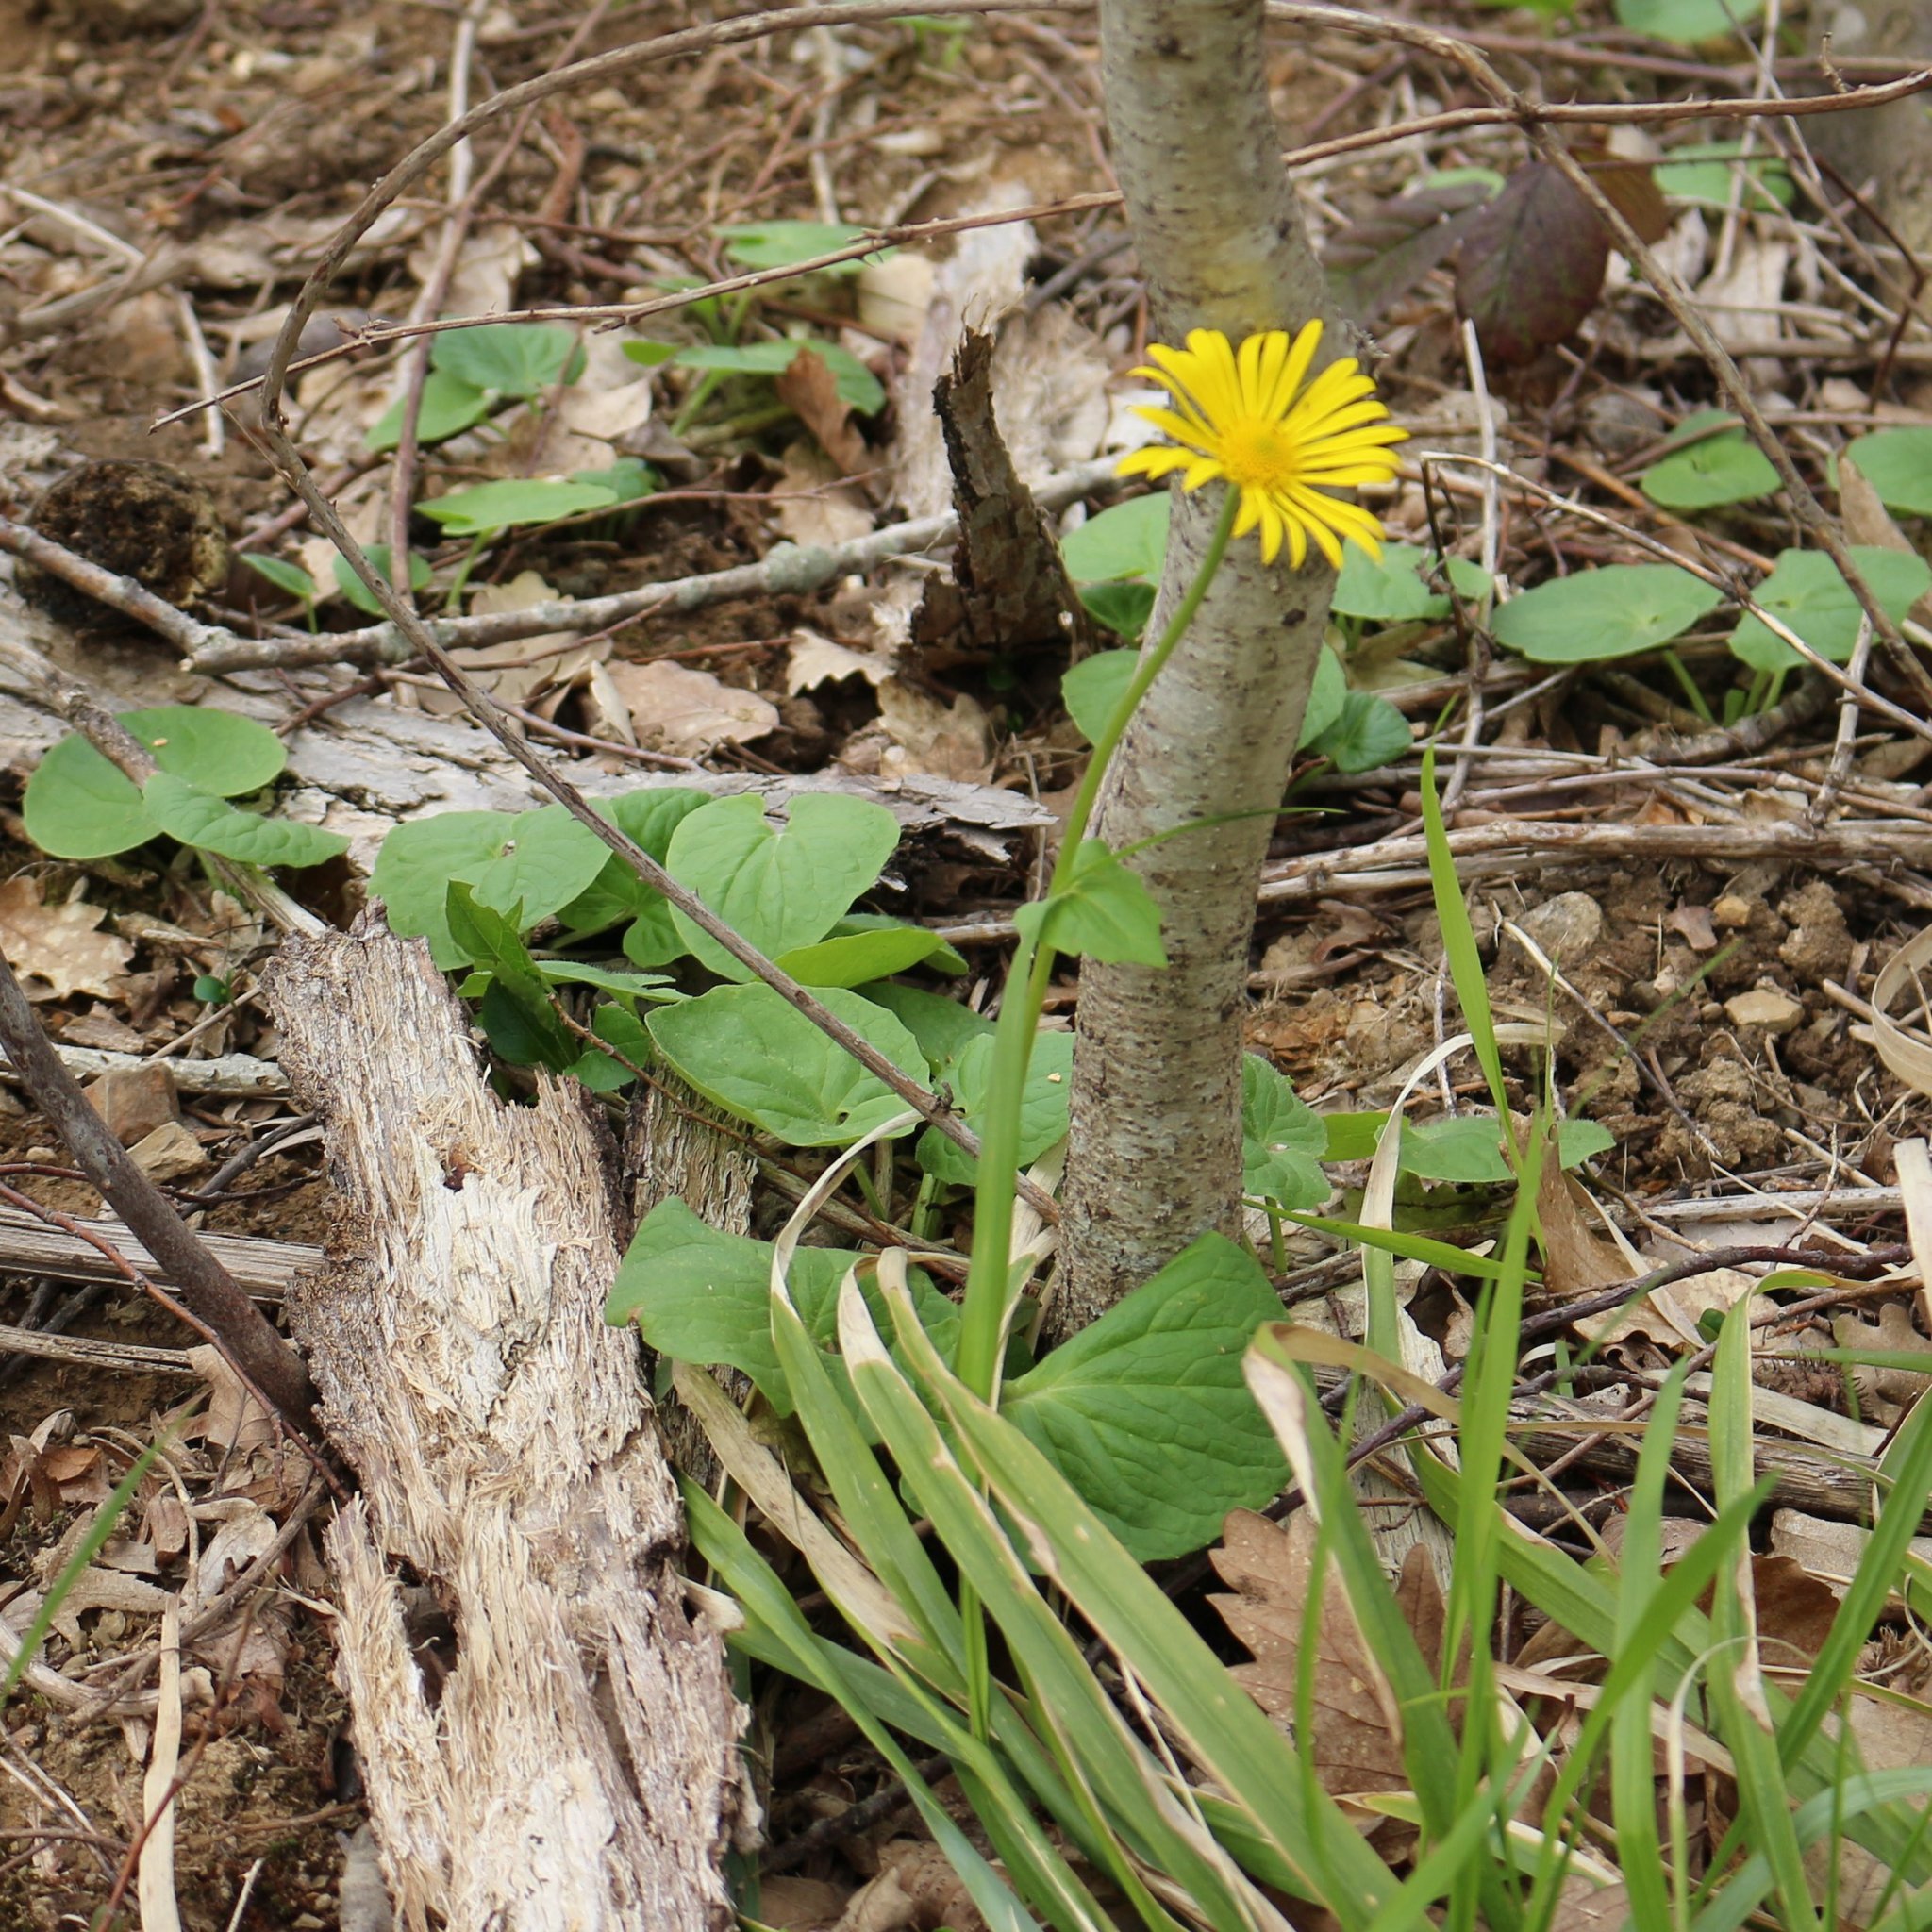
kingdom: Plantae
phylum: Tracheophyta
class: Magnoliopsida
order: Asterales
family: Asteraceae
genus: Doronicum
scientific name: Doronicum
